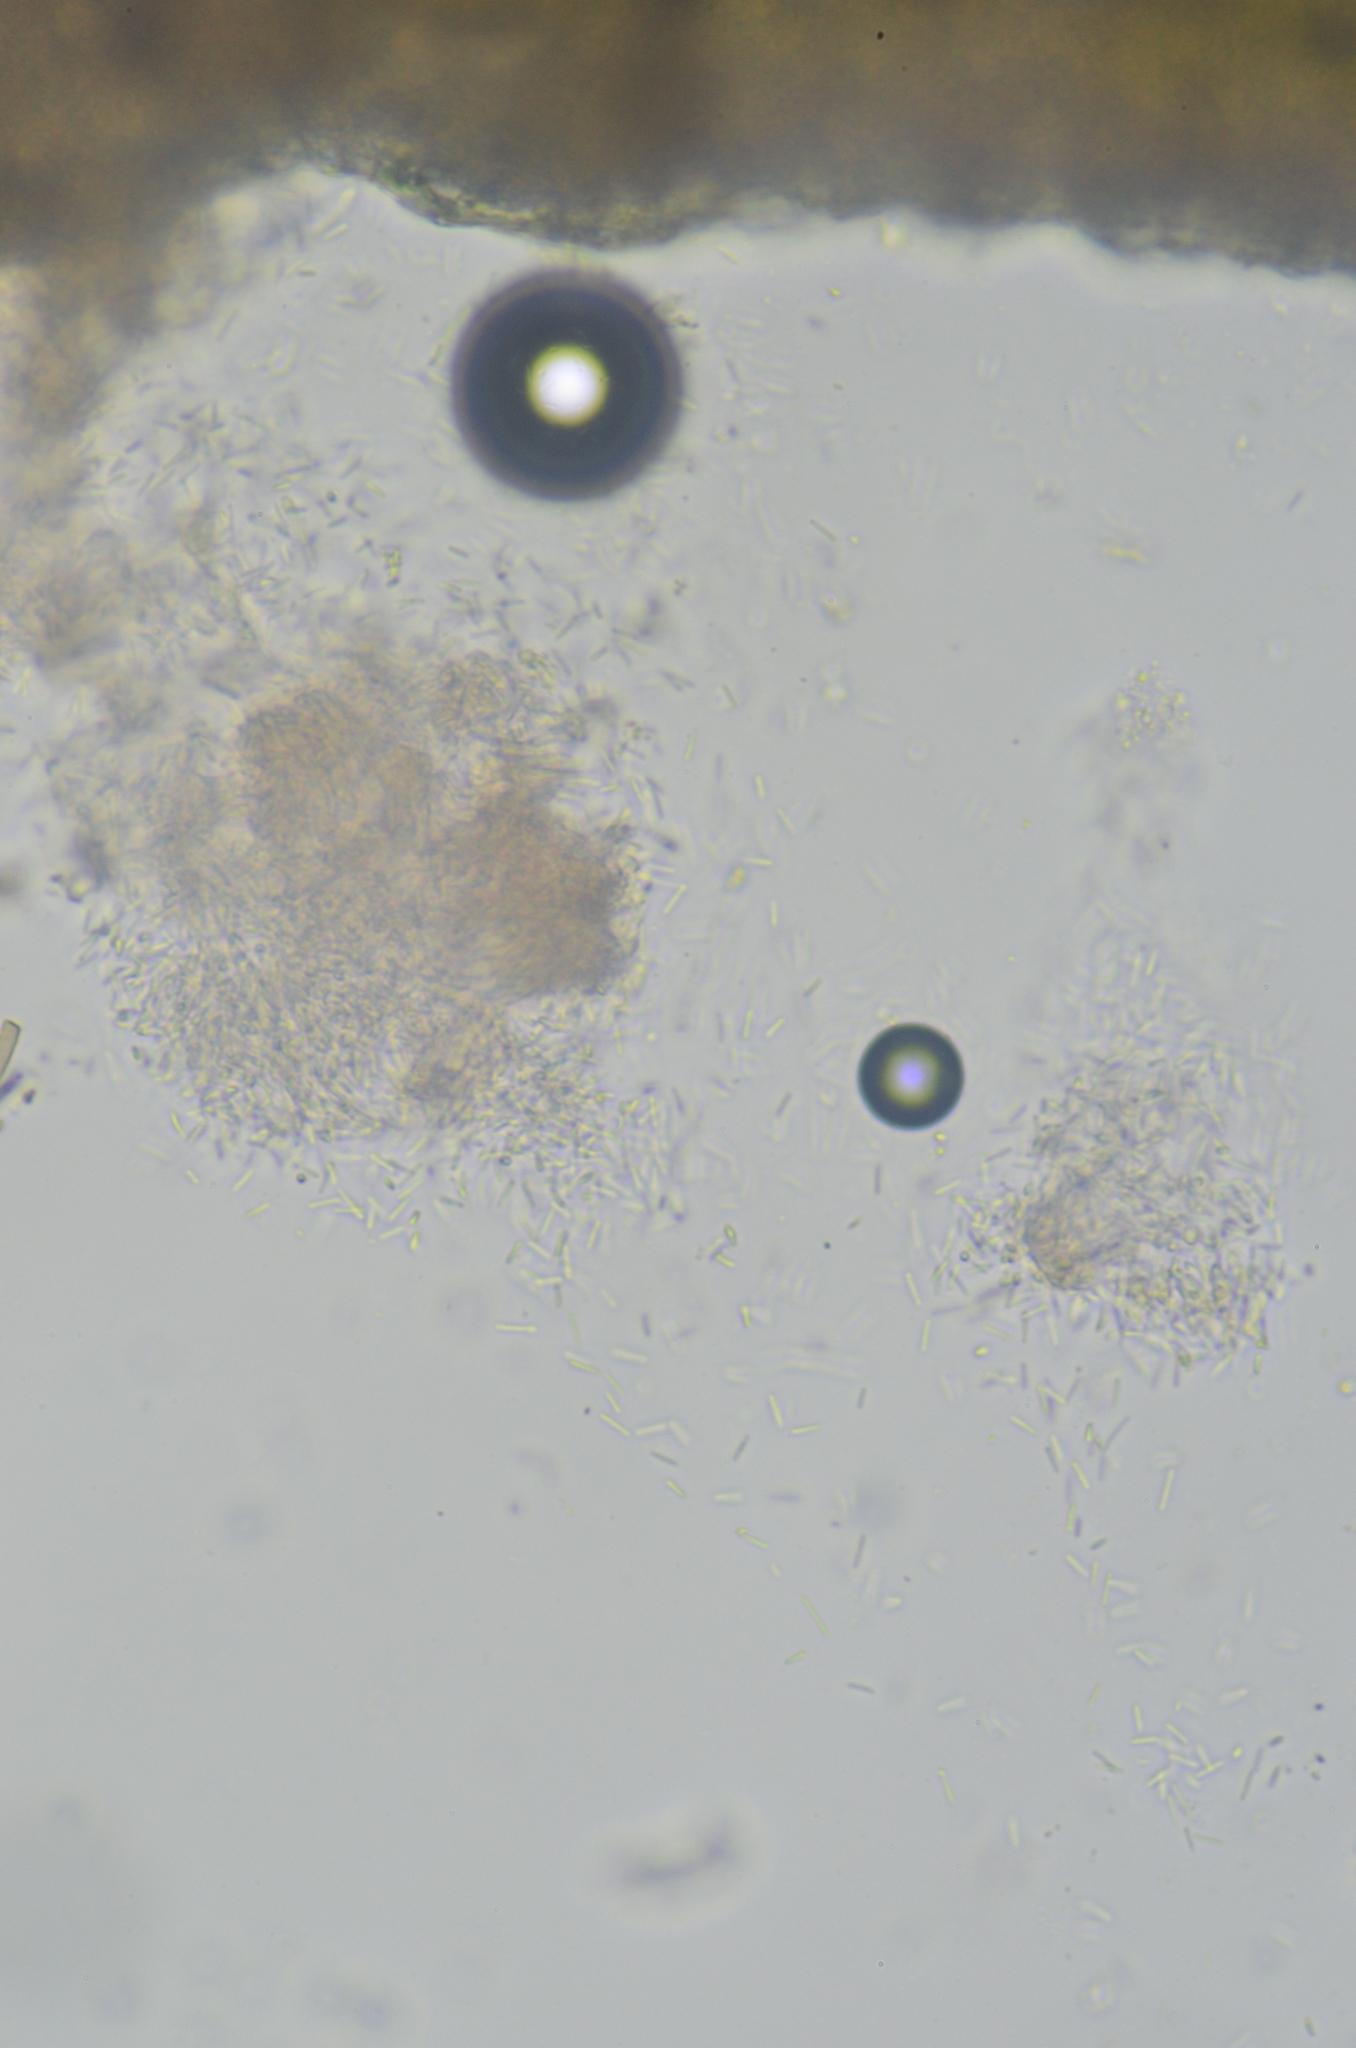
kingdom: Fungi
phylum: Ascomycota
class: Lecanoromycetes
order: Baeomycetales
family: Trapeliaceae
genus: Trapeliopsis
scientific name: Trapeliopsis glaucopholis
